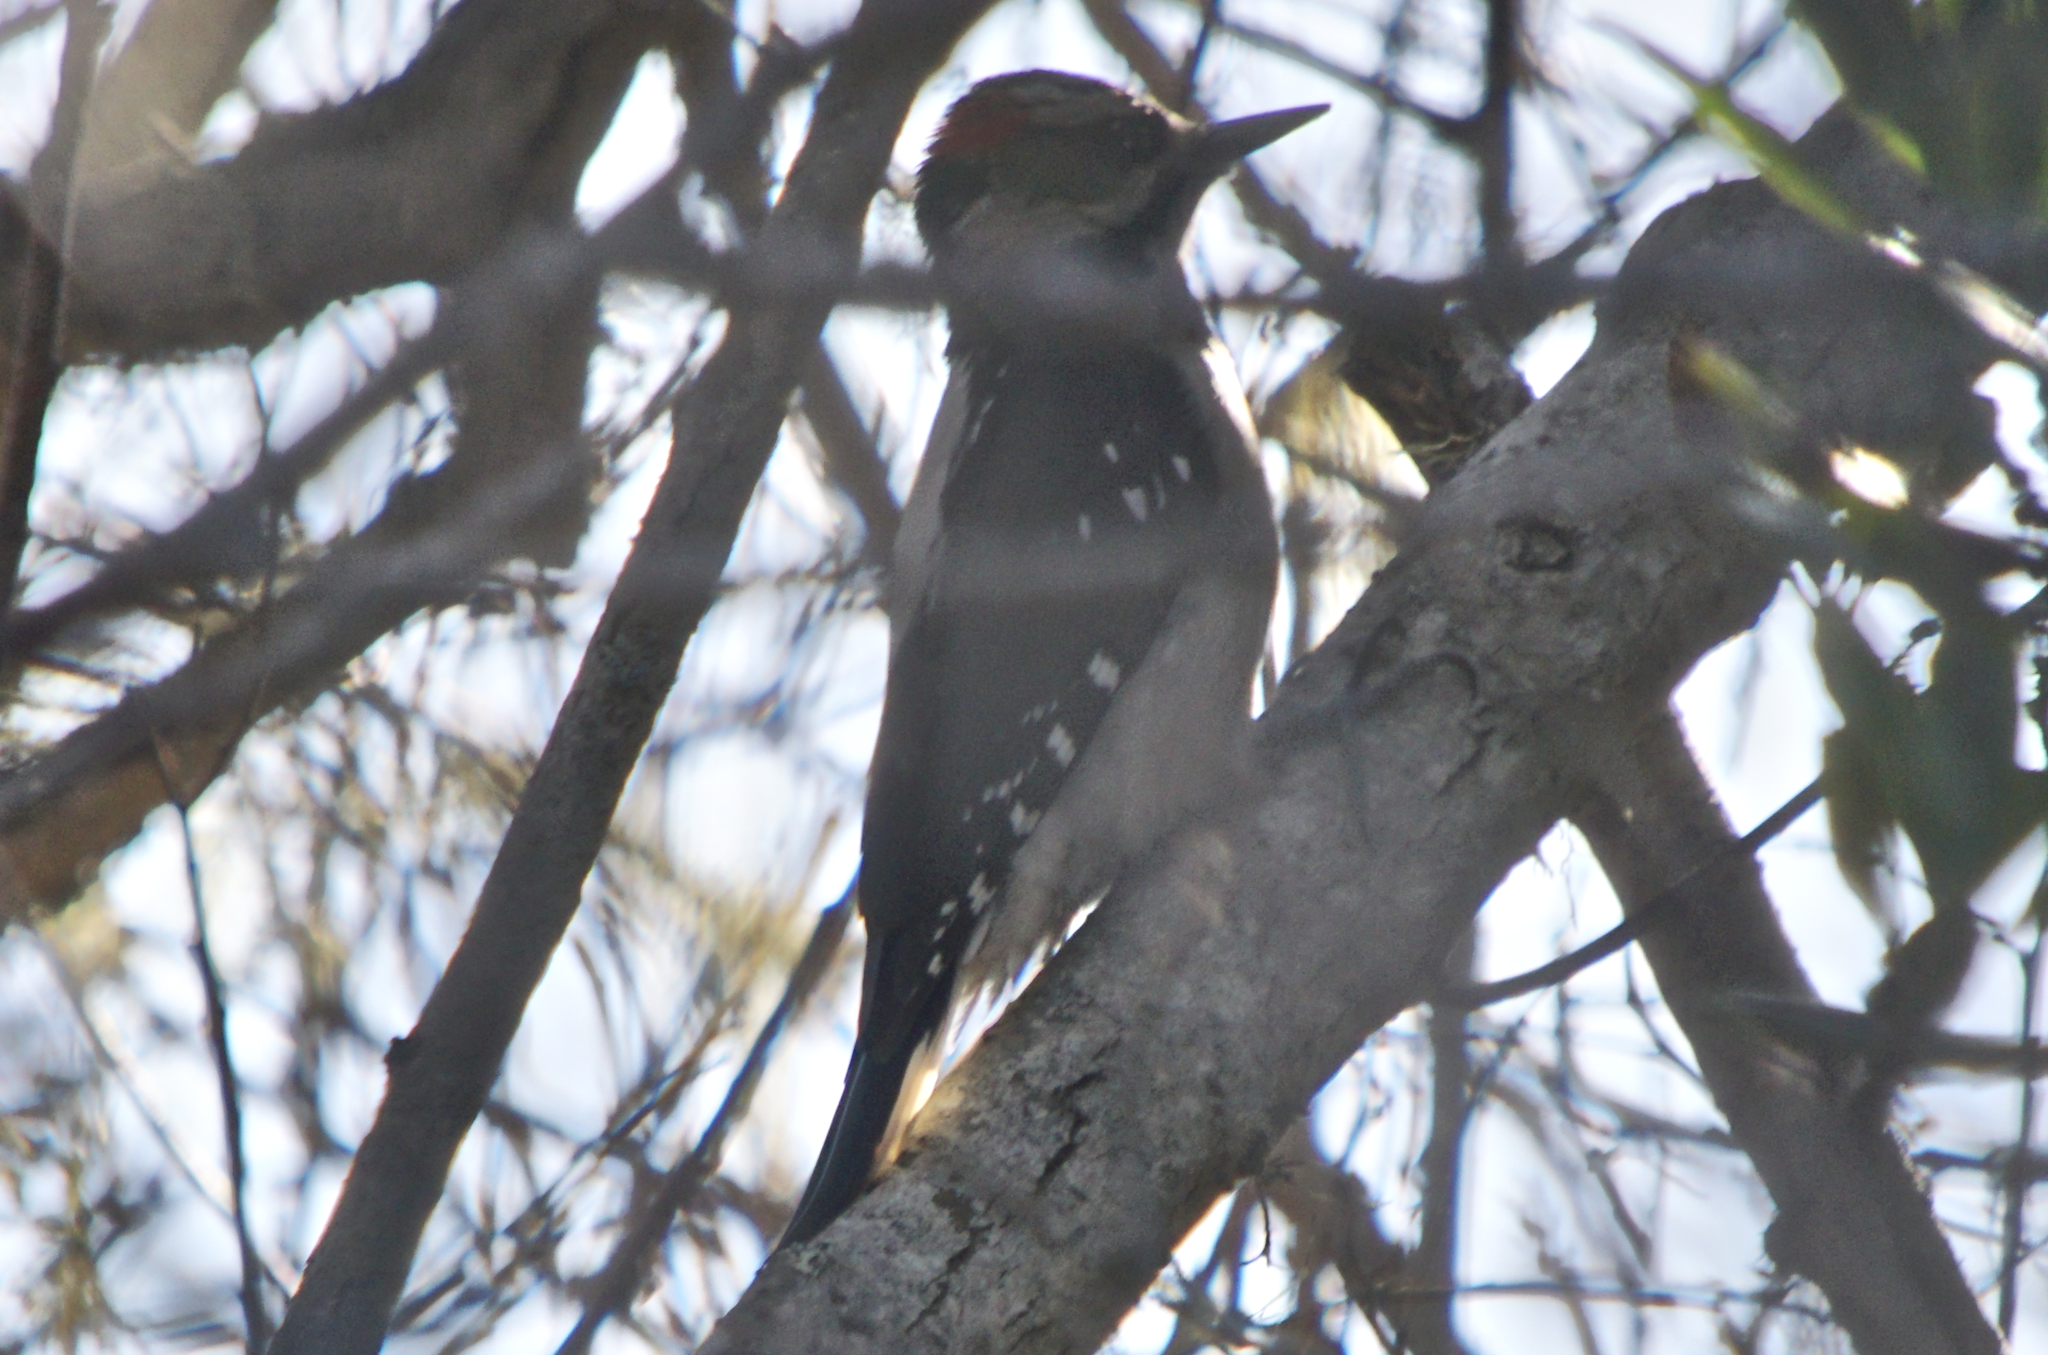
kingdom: Animalia
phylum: Chordata
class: Aves
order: Piciformes
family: Picidae
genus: Leuconotopicus
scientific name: Leuconotopicus villosus
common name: Hairy woodpecker
